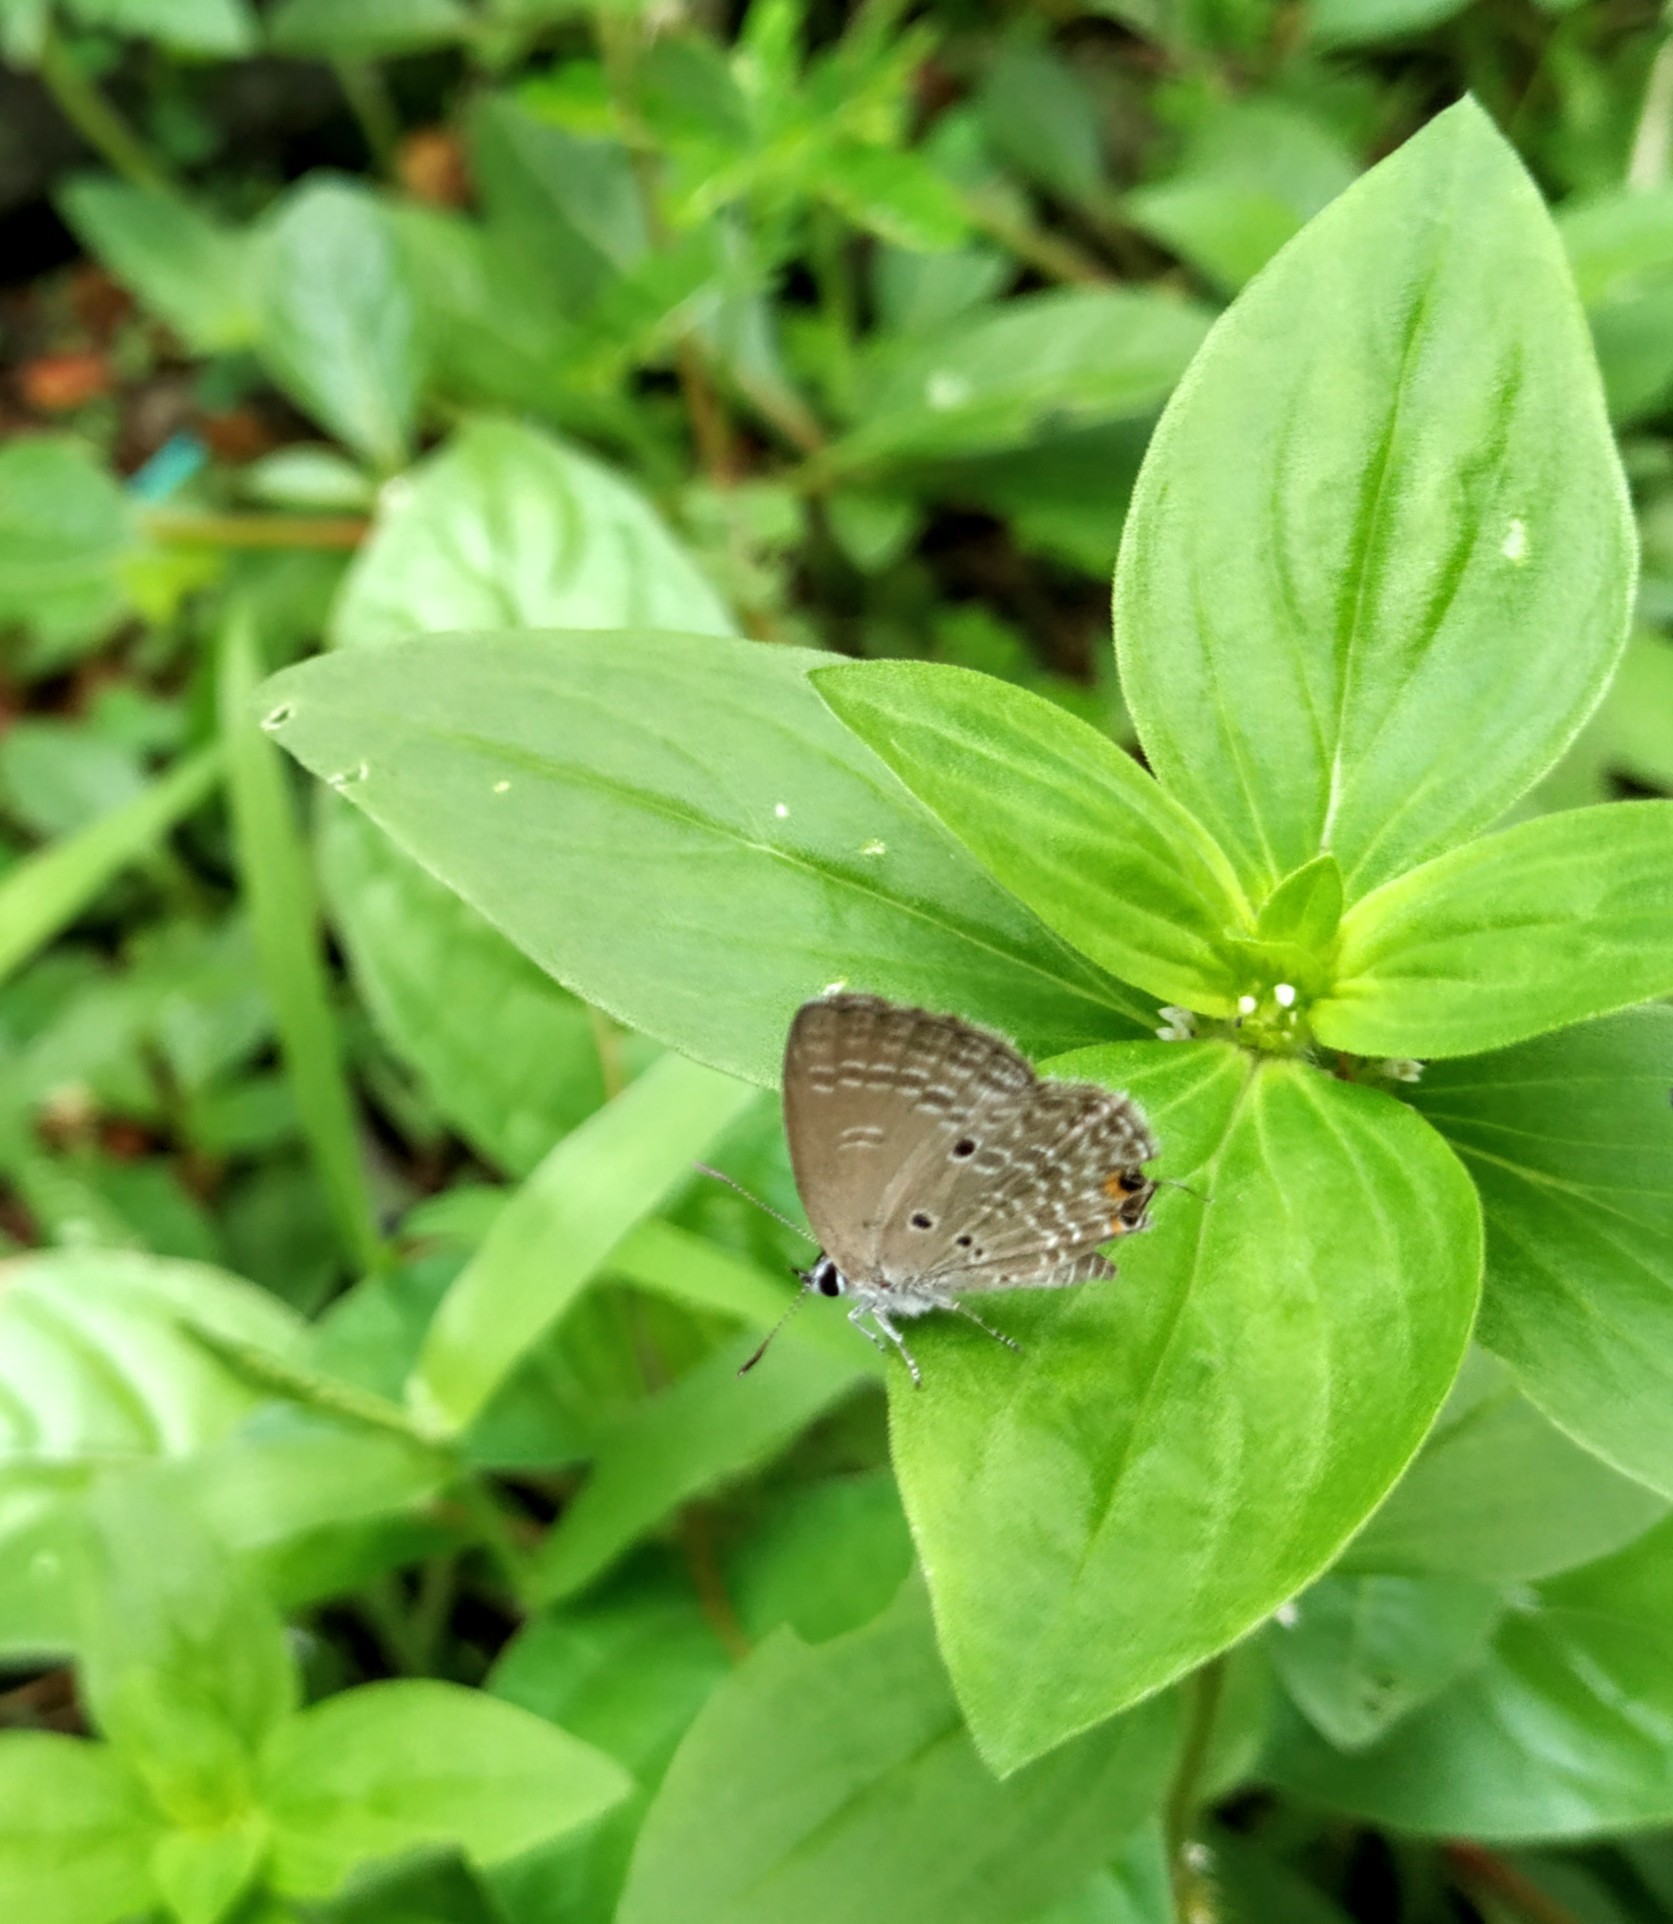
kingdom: Animalia
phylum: Arthropoda
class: Insecta
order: Lepidoptera
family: Lycaenidae
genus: Luthrodes
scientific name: Luthrodes pandava
